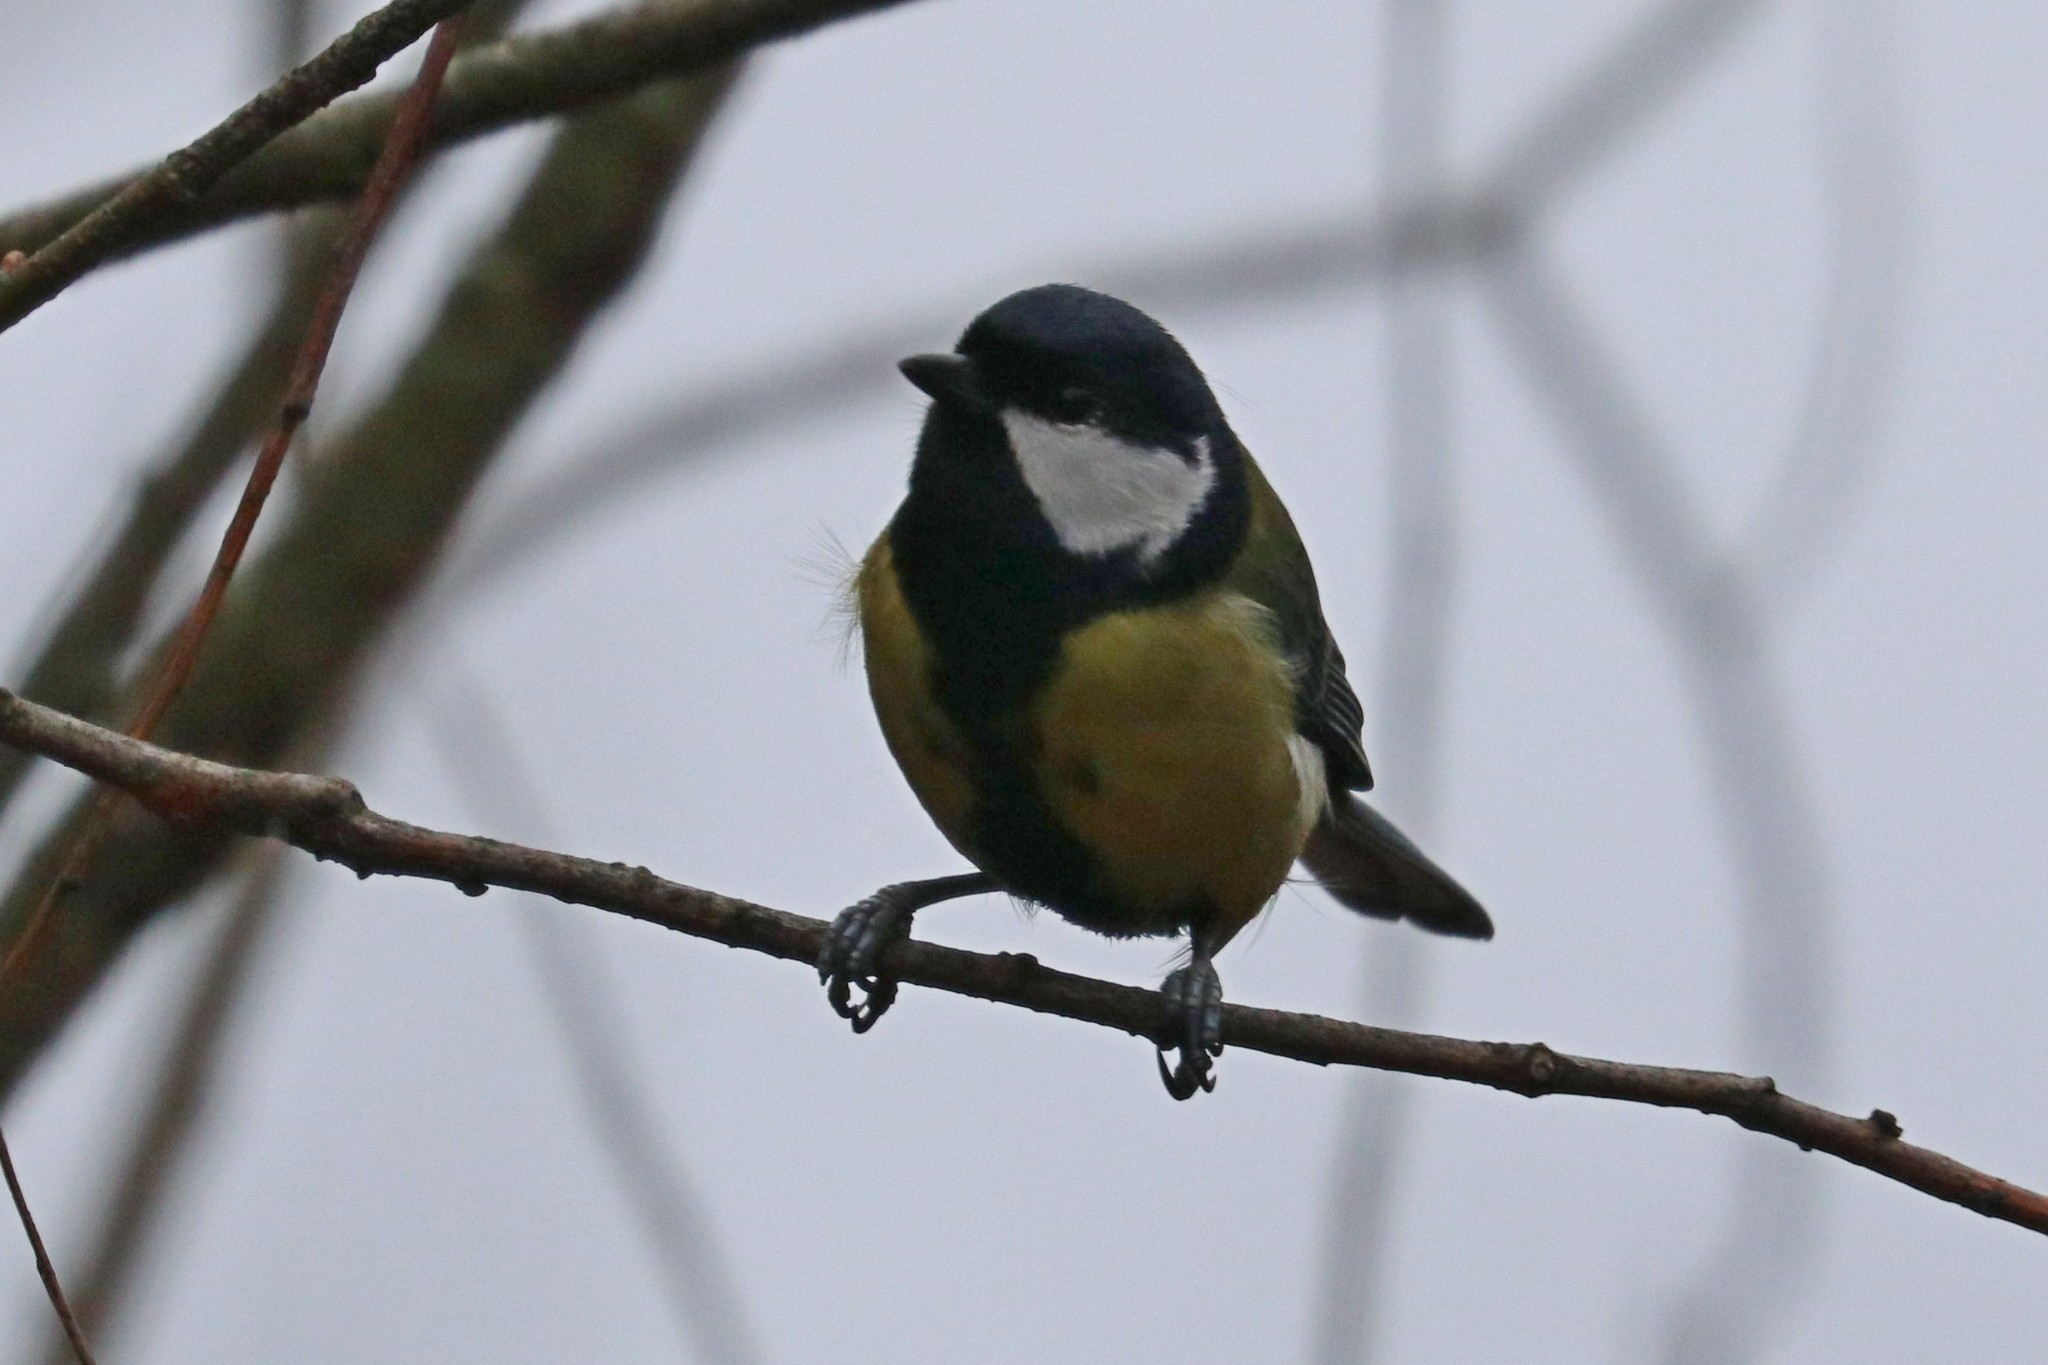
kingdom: Animalia
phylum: Chordata
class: Aves
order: Passeriformes
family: Paridae
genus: Parus
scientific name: Parus major
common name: Great tit
